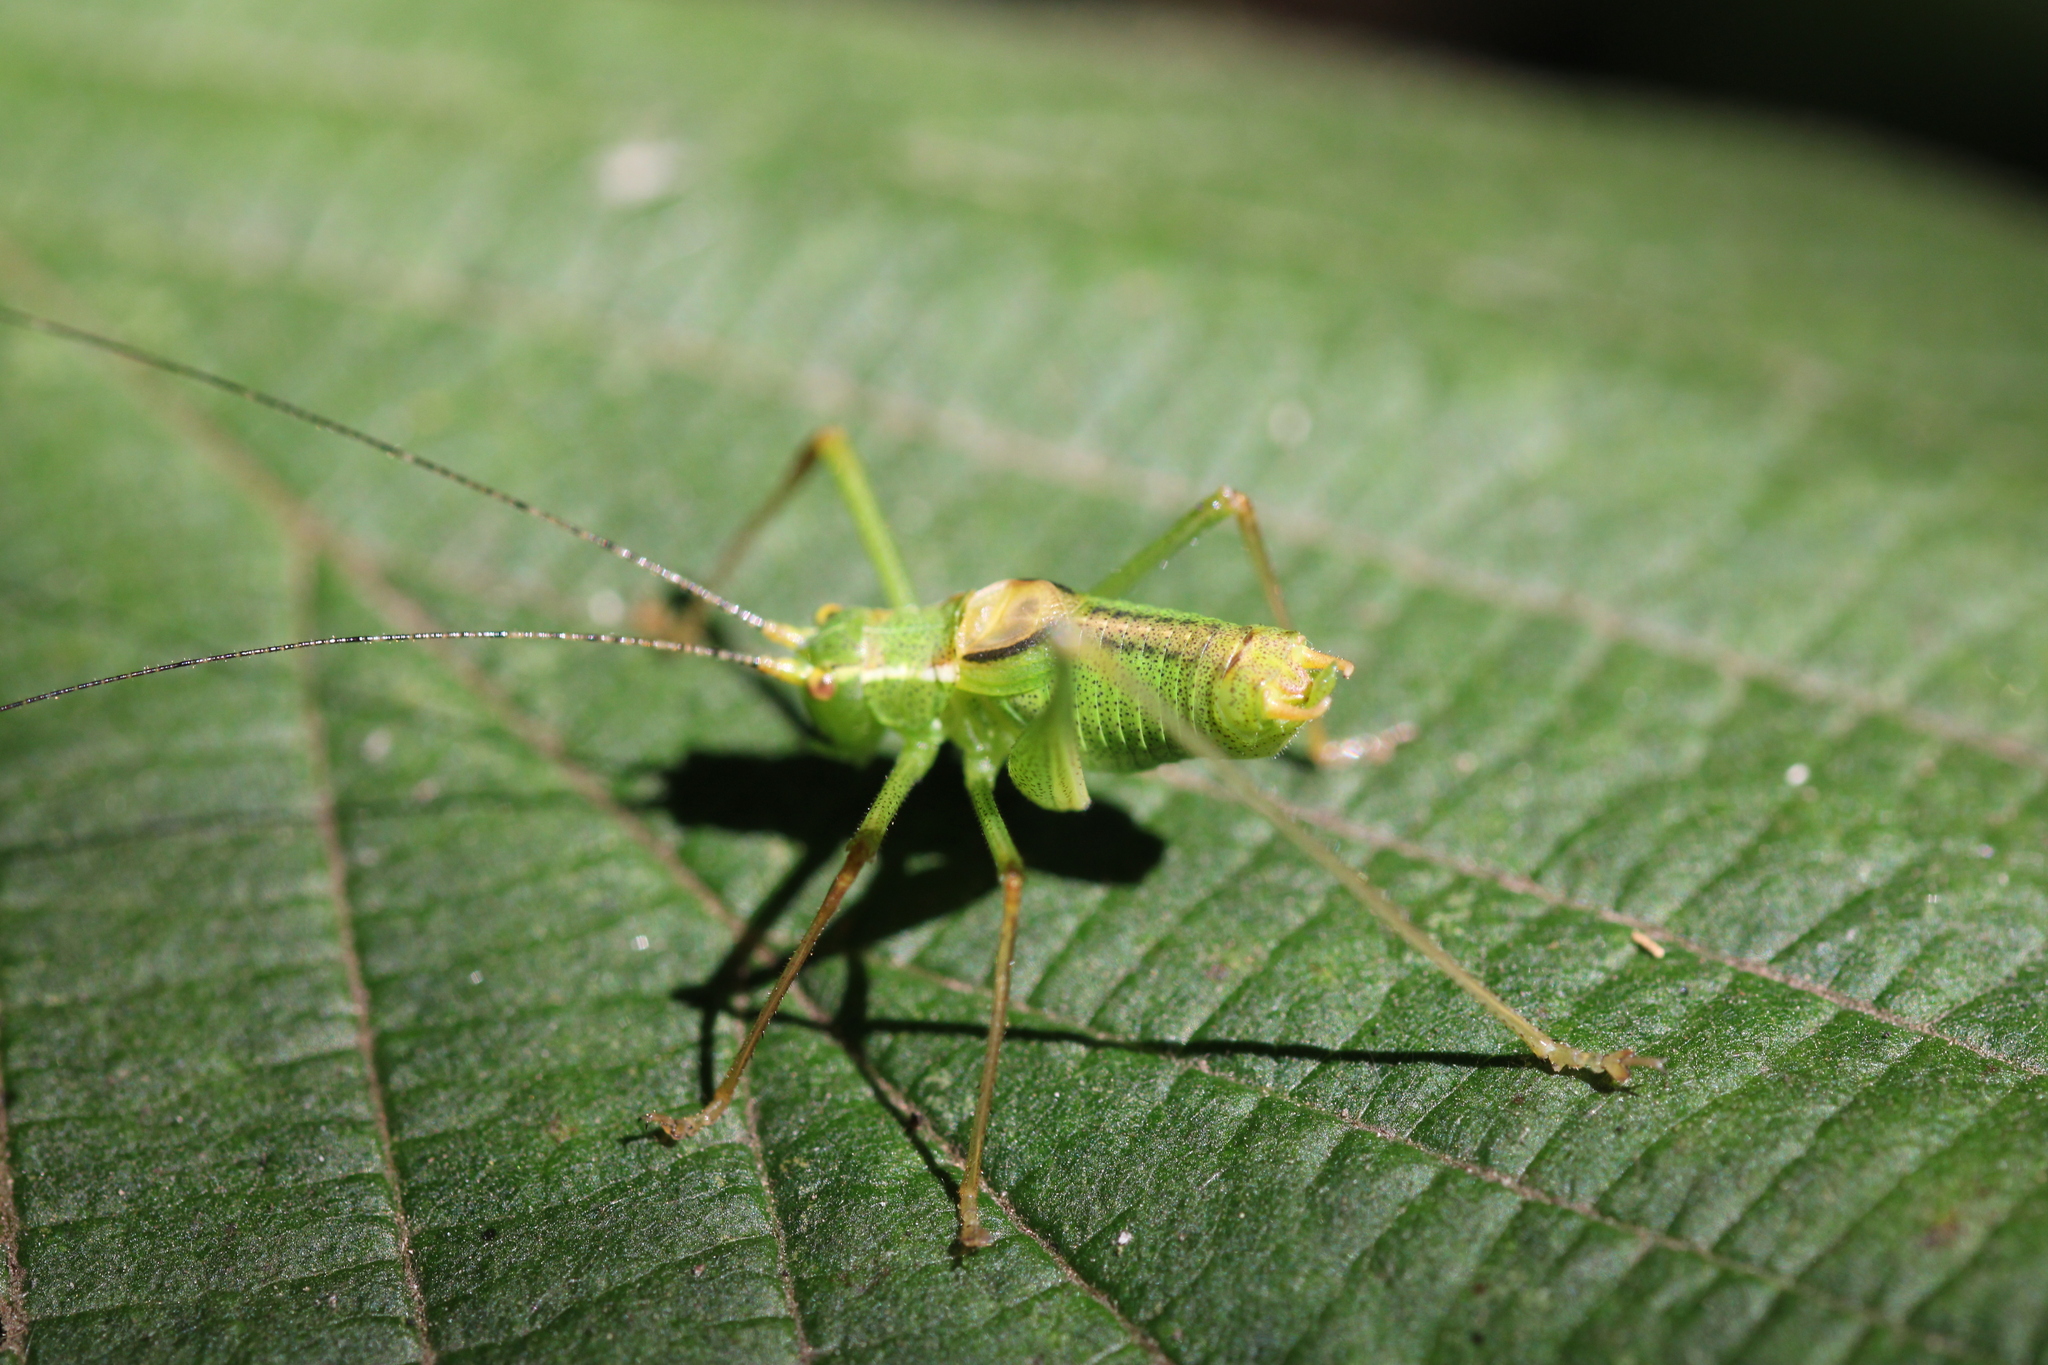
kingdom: Animalia
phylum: Arthropoda
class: Insecta
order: Orthoptera
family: Tettigoniidae
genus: Leptophyes
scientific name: Leptophyes punctatissima
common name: Speckled bush-cricket
